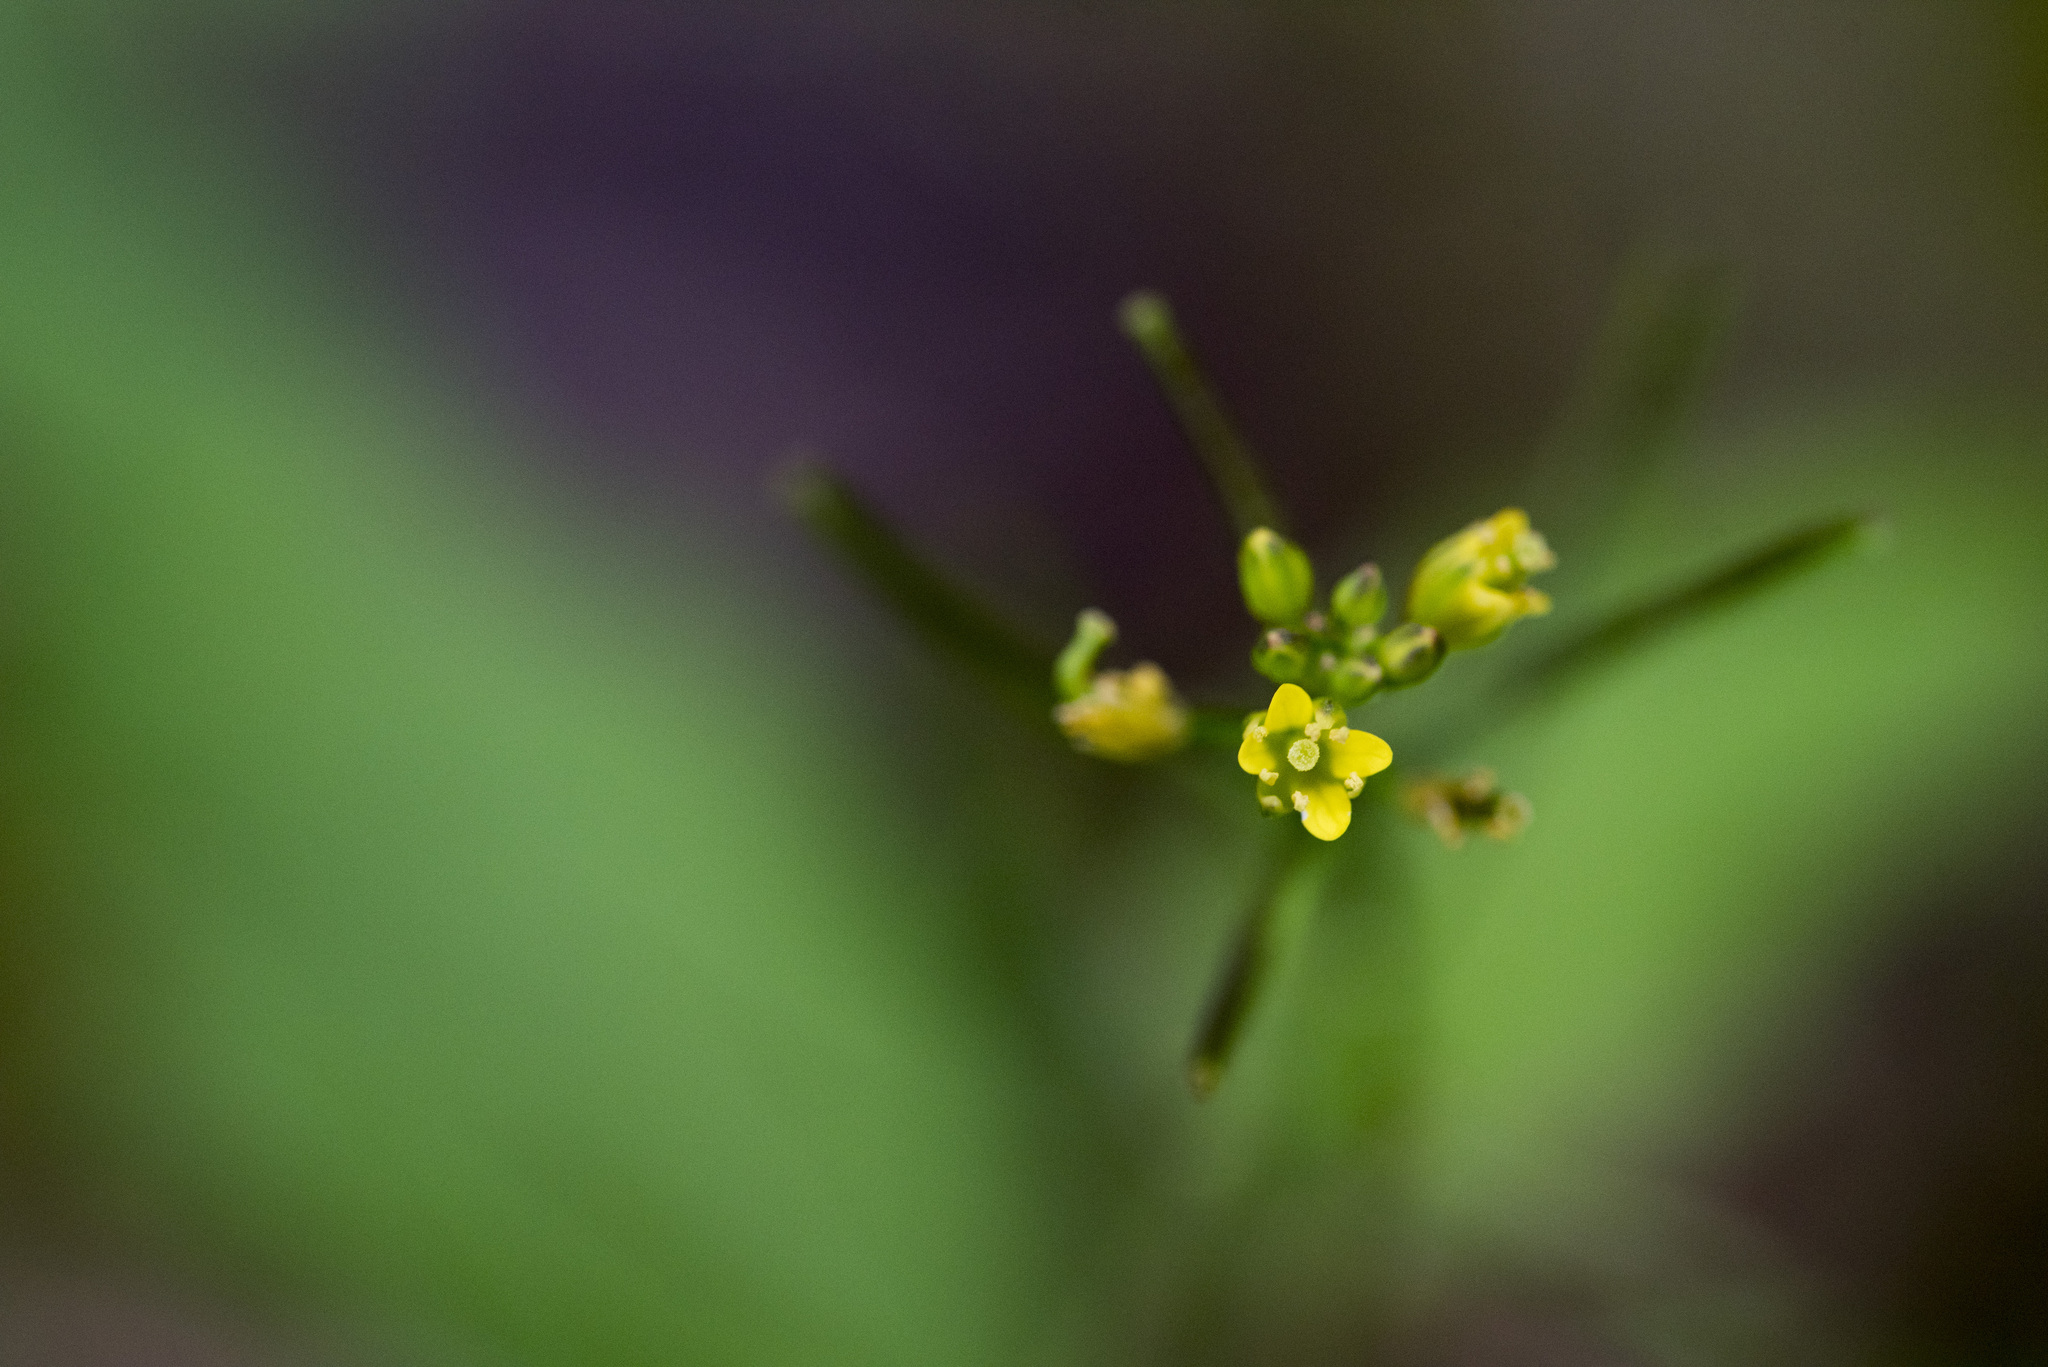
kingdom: Plantae
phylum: Tracheophyta
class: Magnoliopsida
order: Brassicales
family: Brassicaceae
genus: Rorippa
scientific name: Rorippa indica
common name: Variableleaf yellowcress
